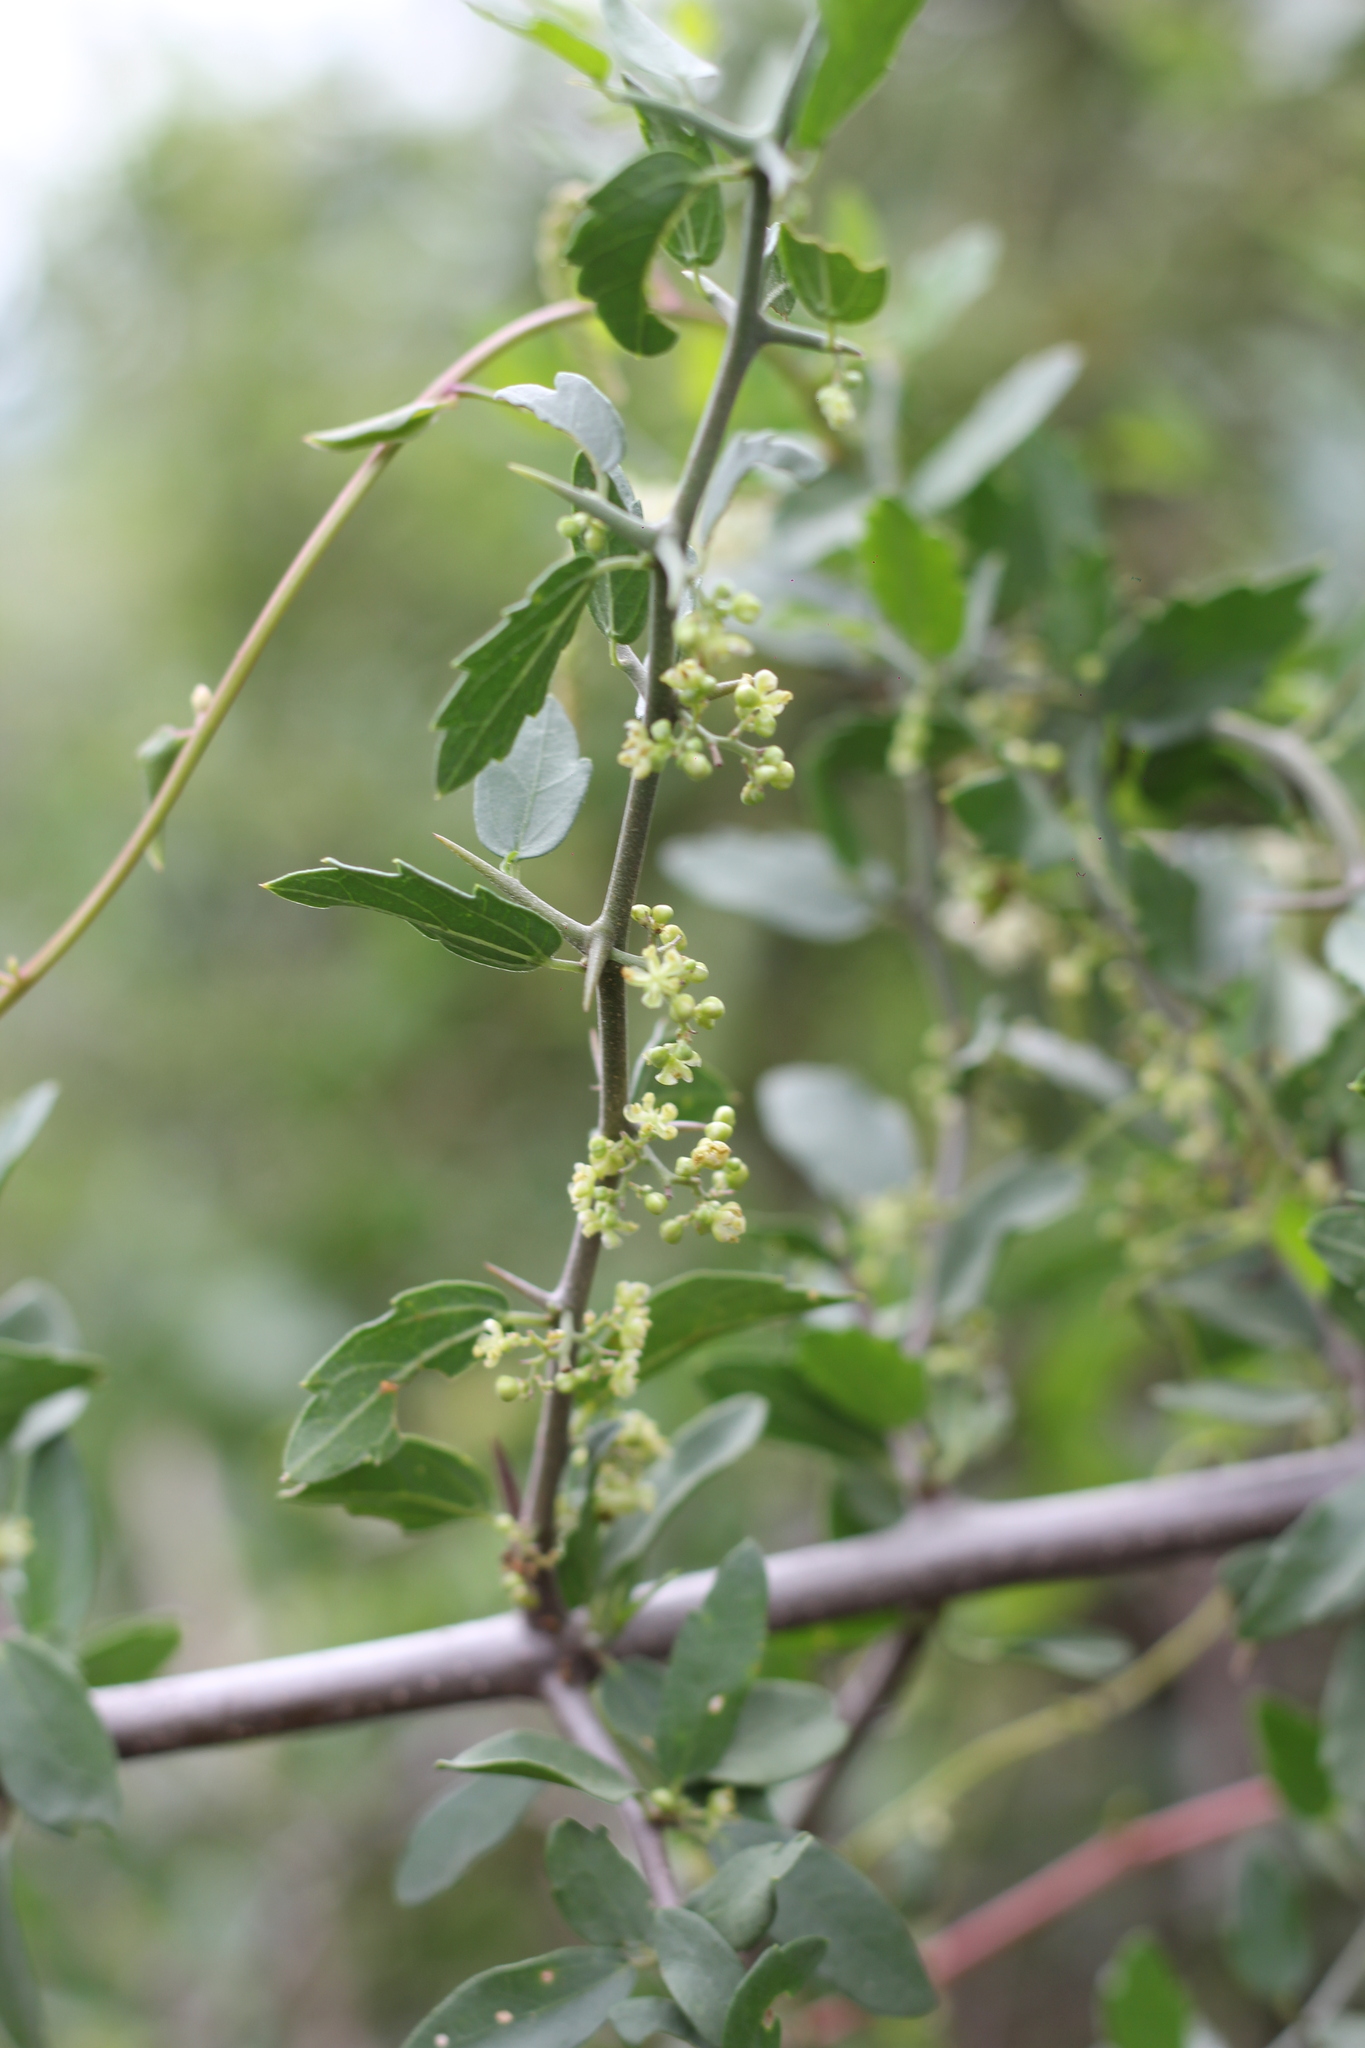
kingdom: Plantae
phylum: Tracheophyta
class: Magnoliopsida
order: Rosales
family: Cannabaceae
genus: Celtis
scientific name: Celtis pallida
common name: Desert hackberry
